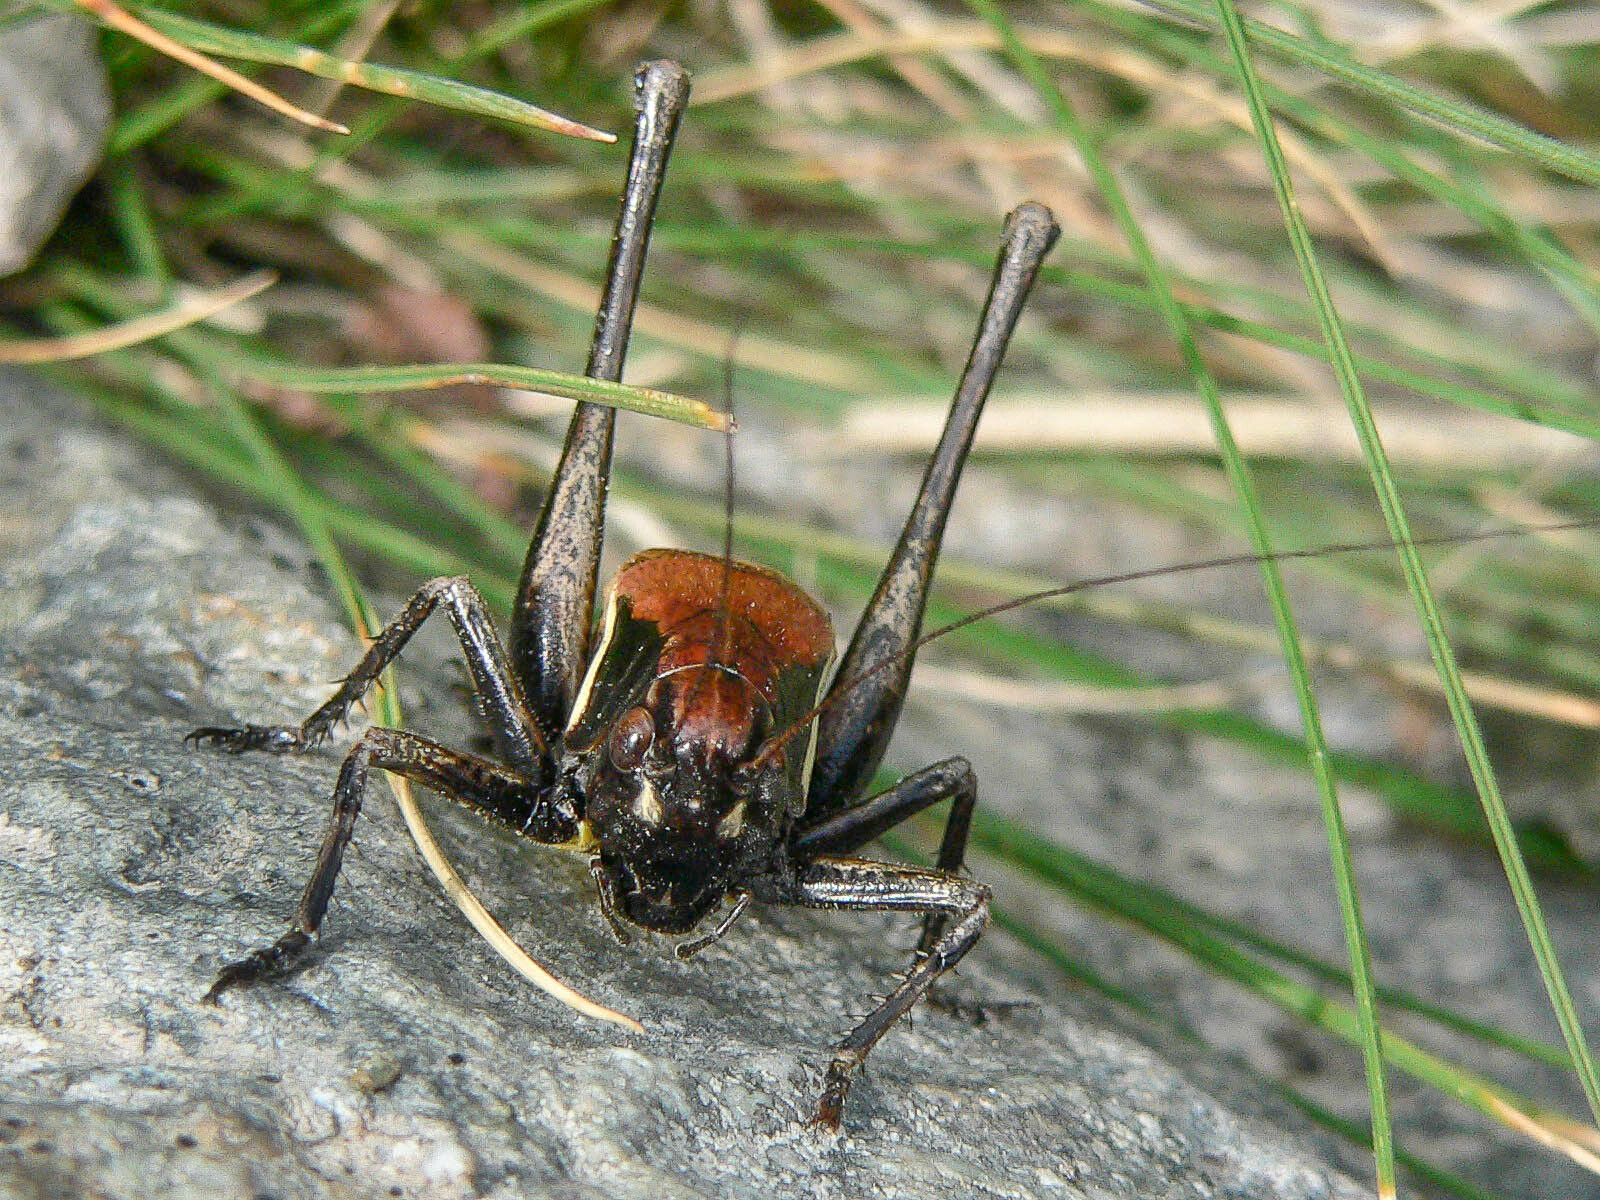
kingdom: Animalia
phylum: Arthropoda
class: Insecta
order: Orthoptera
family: Tettigoniidae
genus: Pholidoptera
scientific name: Pholidoptera aptera
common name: Alpine dark bush-cricket
